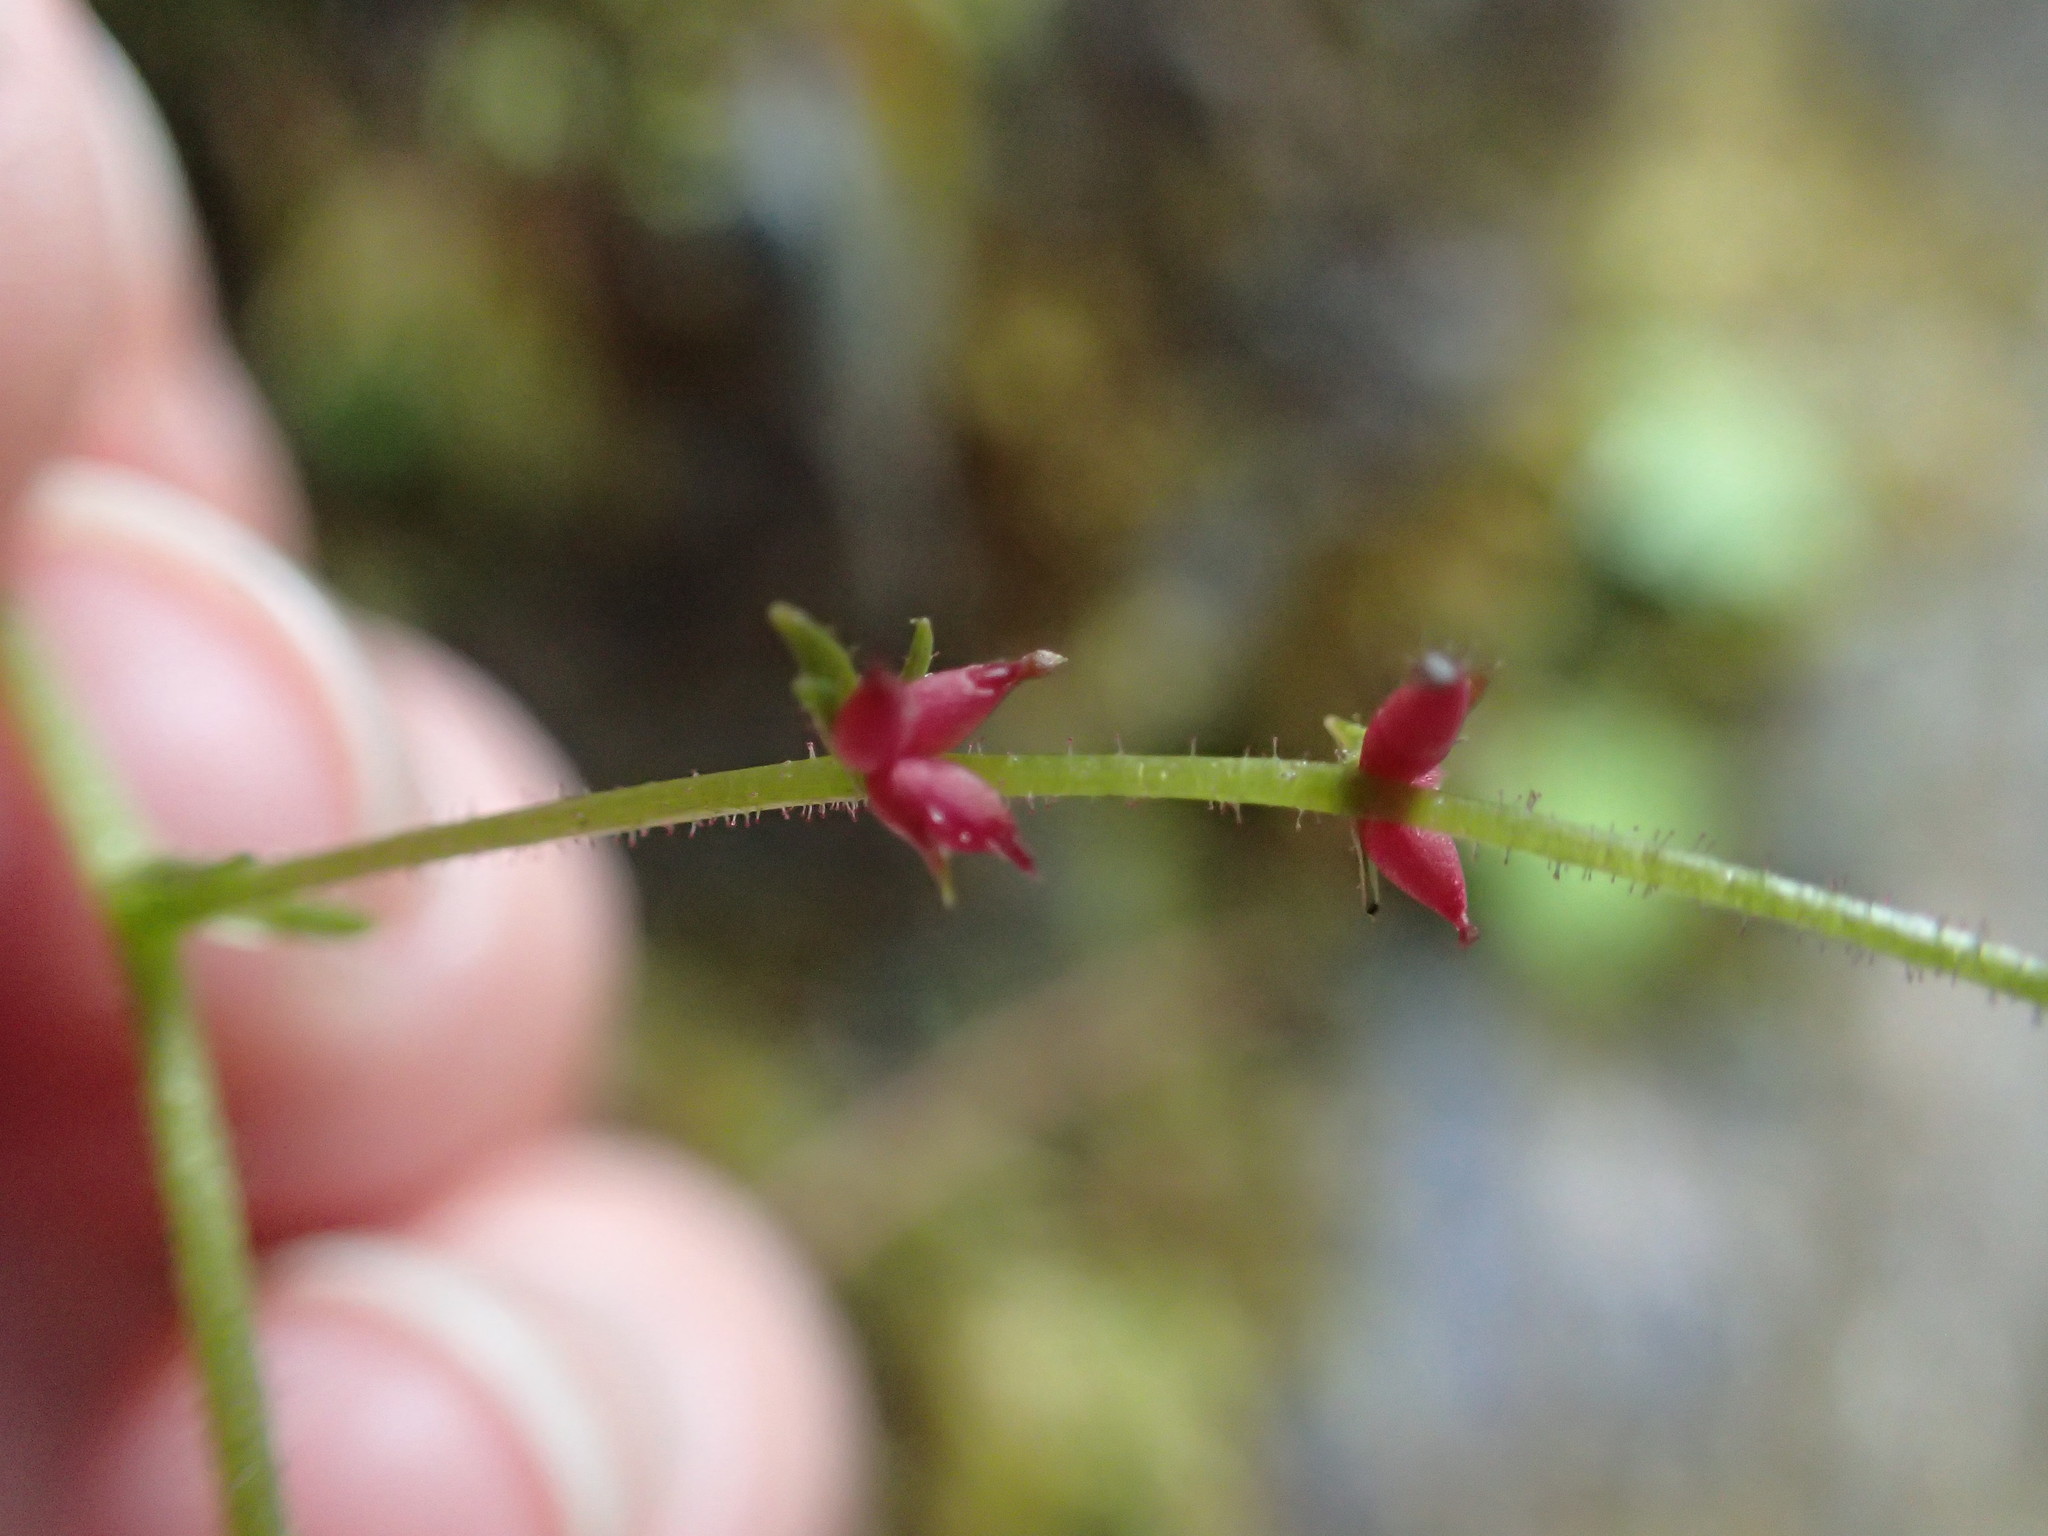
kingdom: Plantae
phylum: Tracheophyta
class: Magnoliopsida
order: Saxifragales
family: Saxifragaceae
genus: Micranthes
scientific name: Micranthes mertensiana
